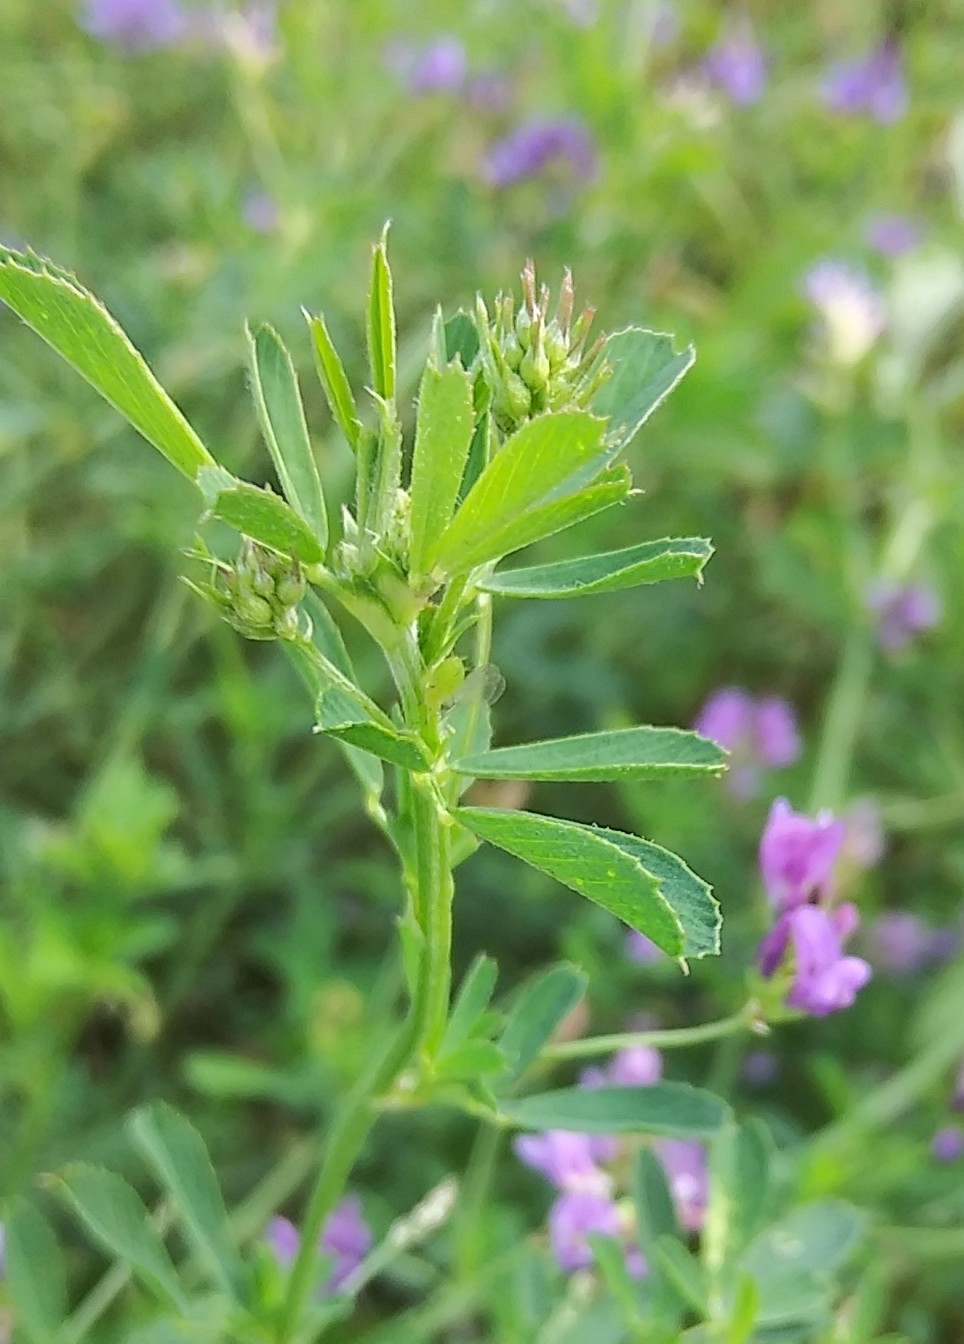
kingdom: Plantae
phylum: Tracheophyta
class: Magnoliopsida
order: Fabales
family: Fabaceae
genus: Medicago
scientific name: Medicago sativa
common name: Alfalfa
